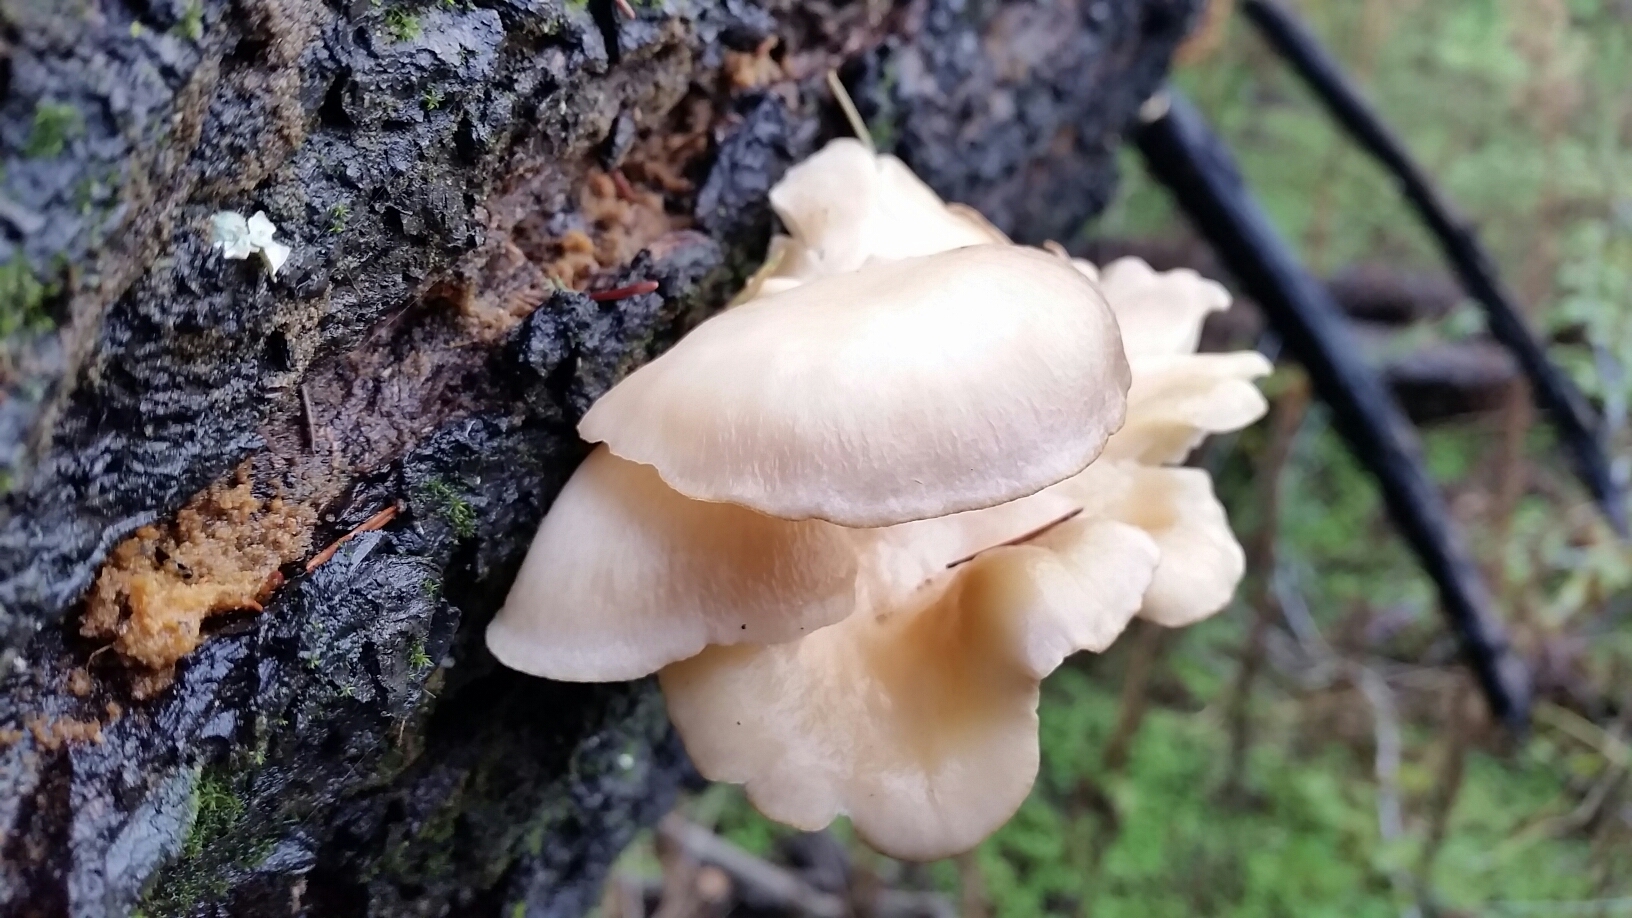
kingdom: Fungi
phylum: Basidiomycota
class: Agaricomycetes
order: Agaricales
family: Pleurotaceae
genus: Pleurotus
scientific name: Pleurotus ostreatus
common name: Oyster mushroom
